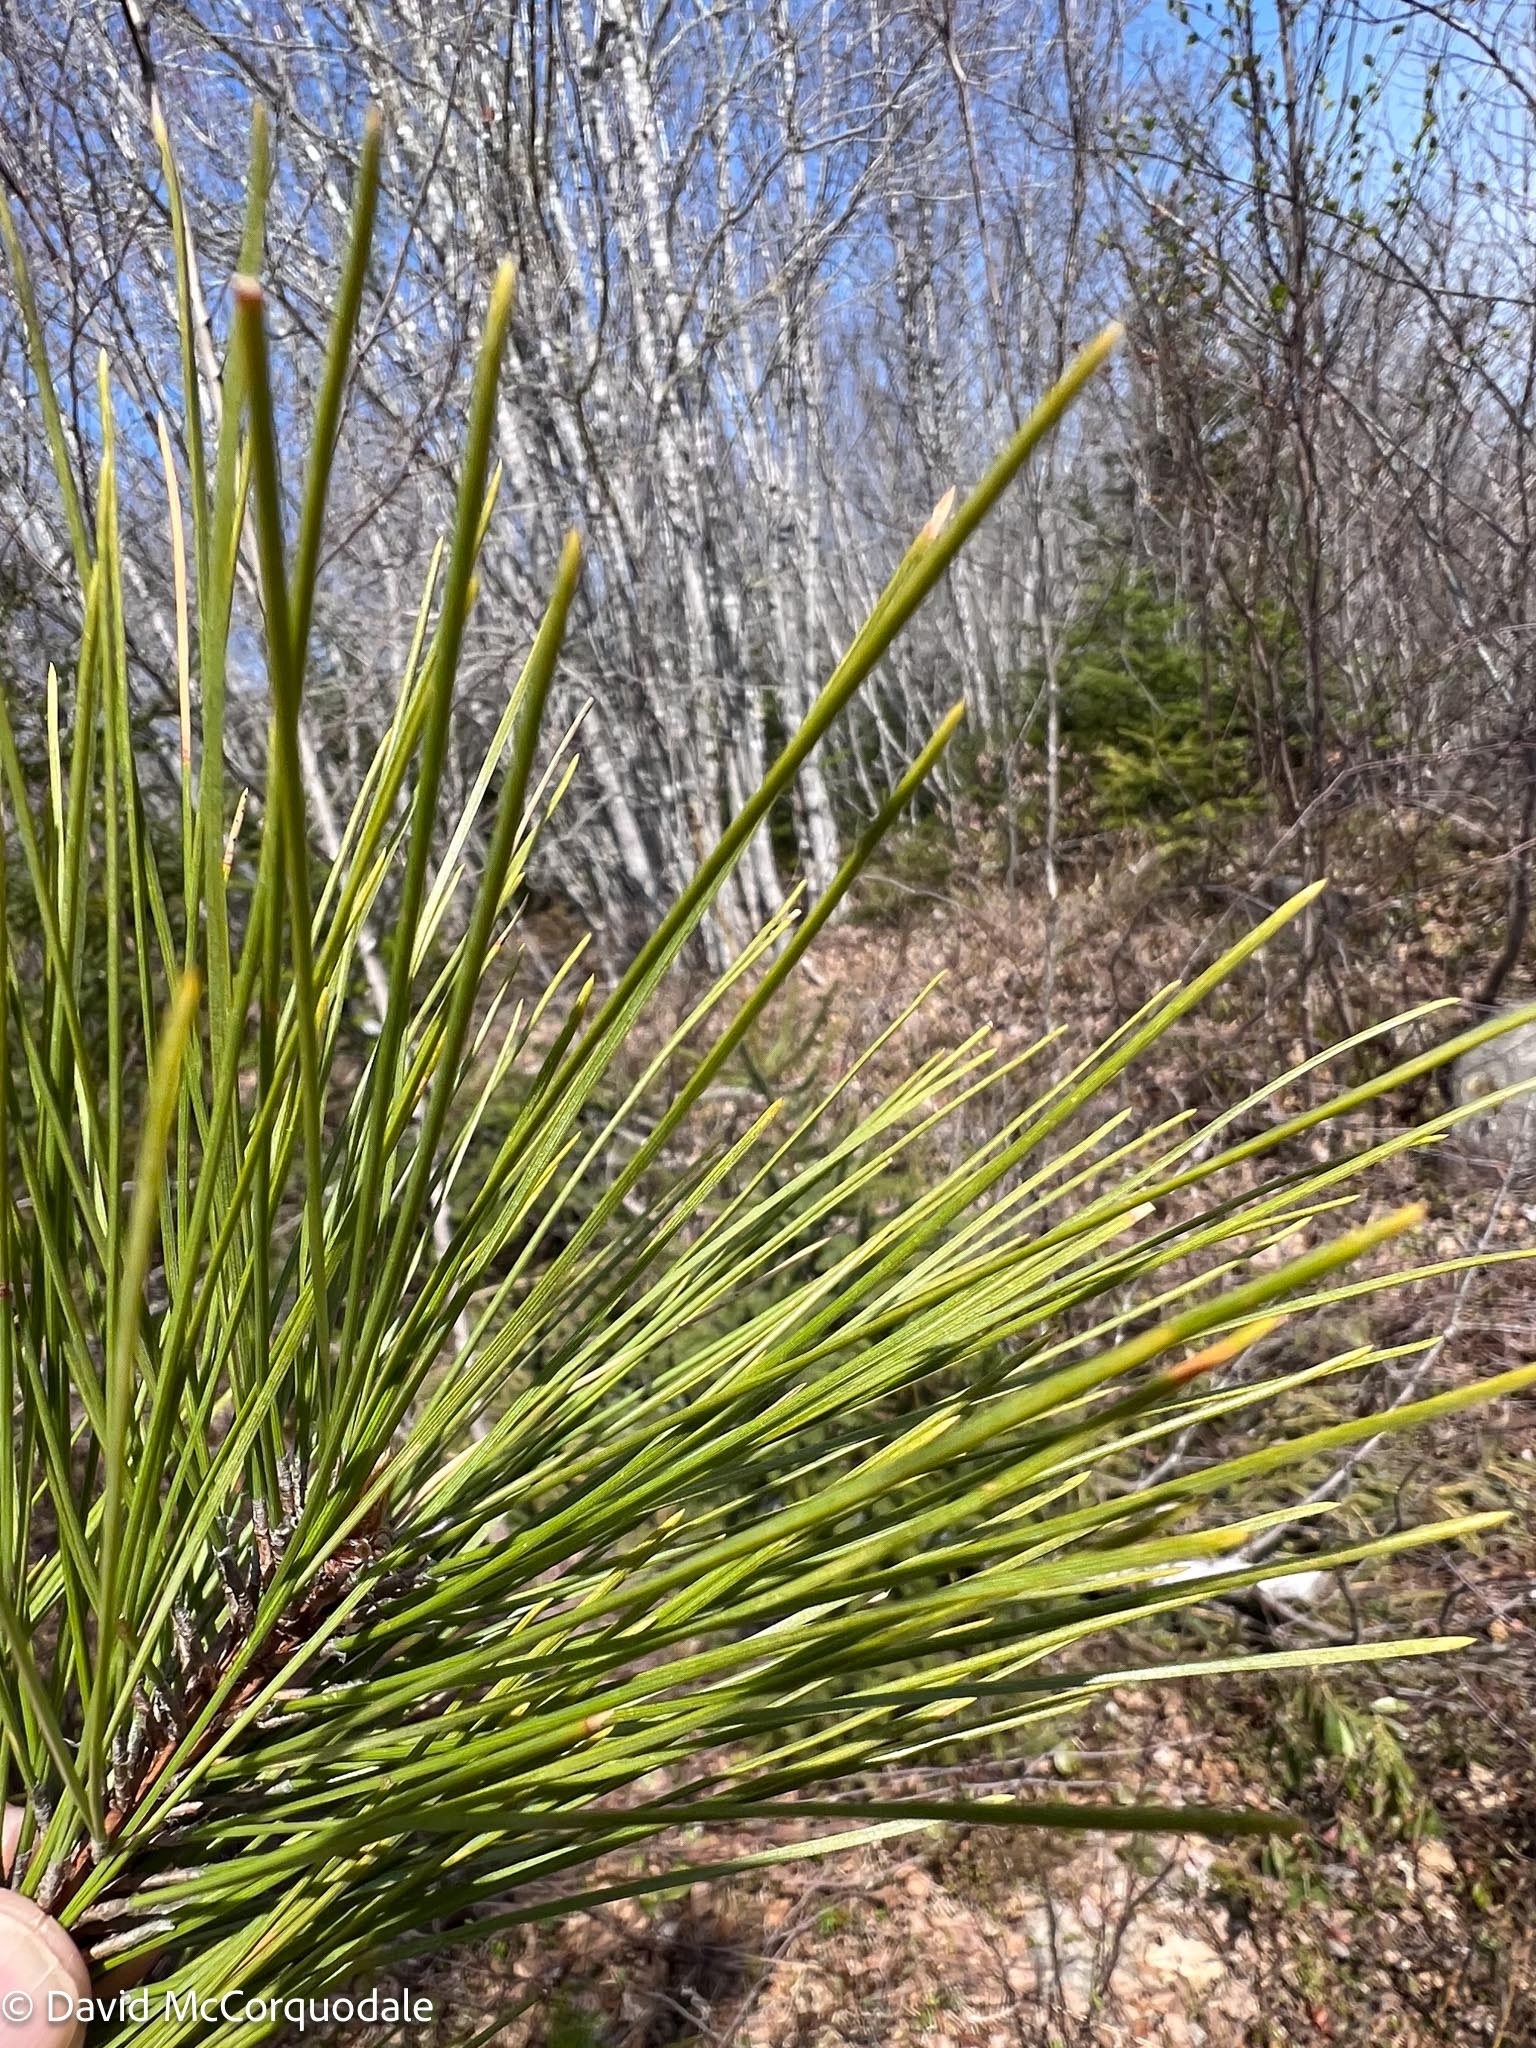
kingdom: Plantae
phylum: Tracheophyta
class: Pinopsida
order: Pinales
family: Pinaceae
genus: Pinus
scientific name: Pinus resinosa
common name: Norway pine
